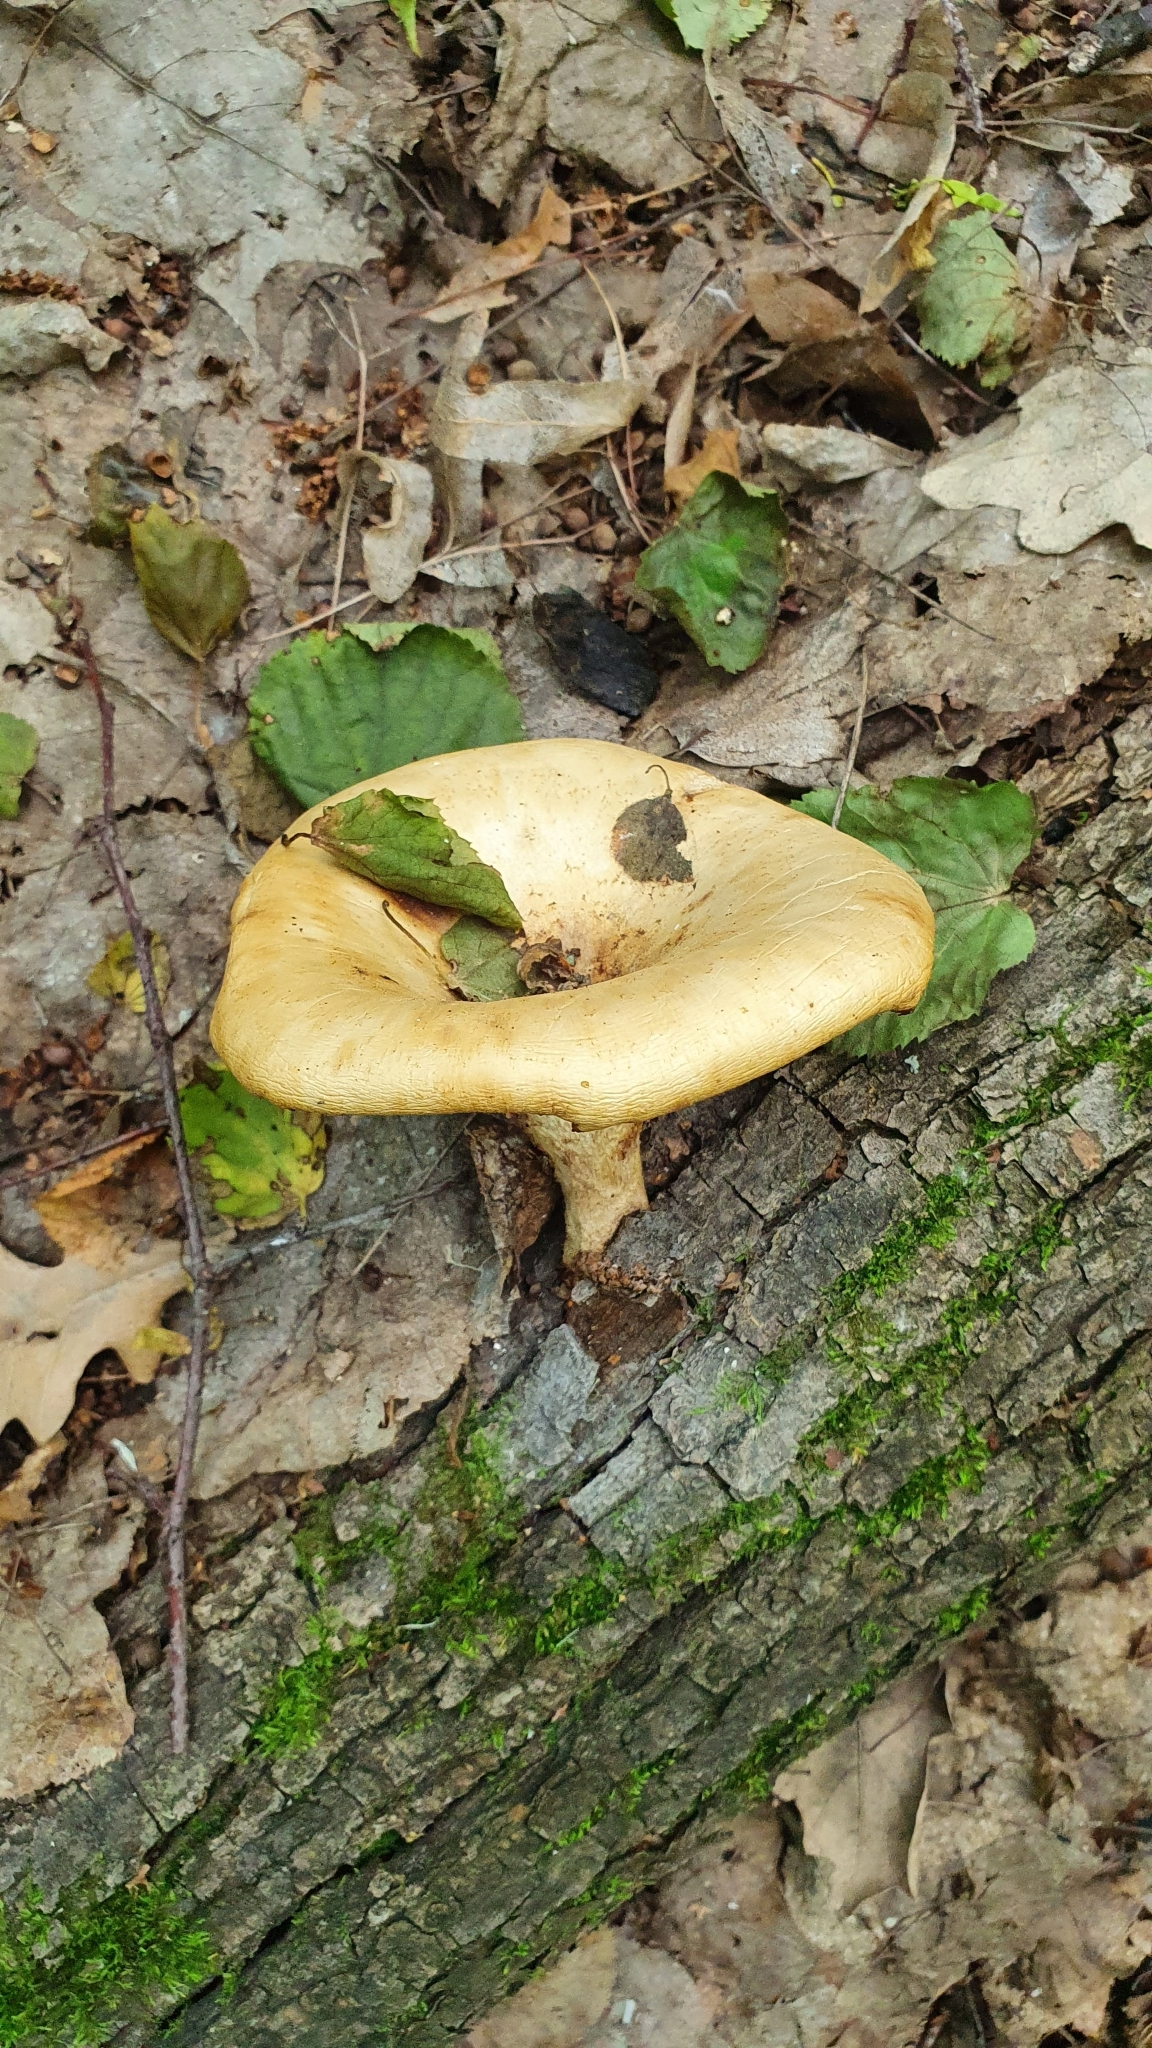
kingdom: Fungi
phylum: Basidiomycota
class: Agaricomycetes
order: Polyporales
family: Polyporaceae
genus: Polyporus
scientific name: Polyporus tuberaster
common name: Tuberous polypore
